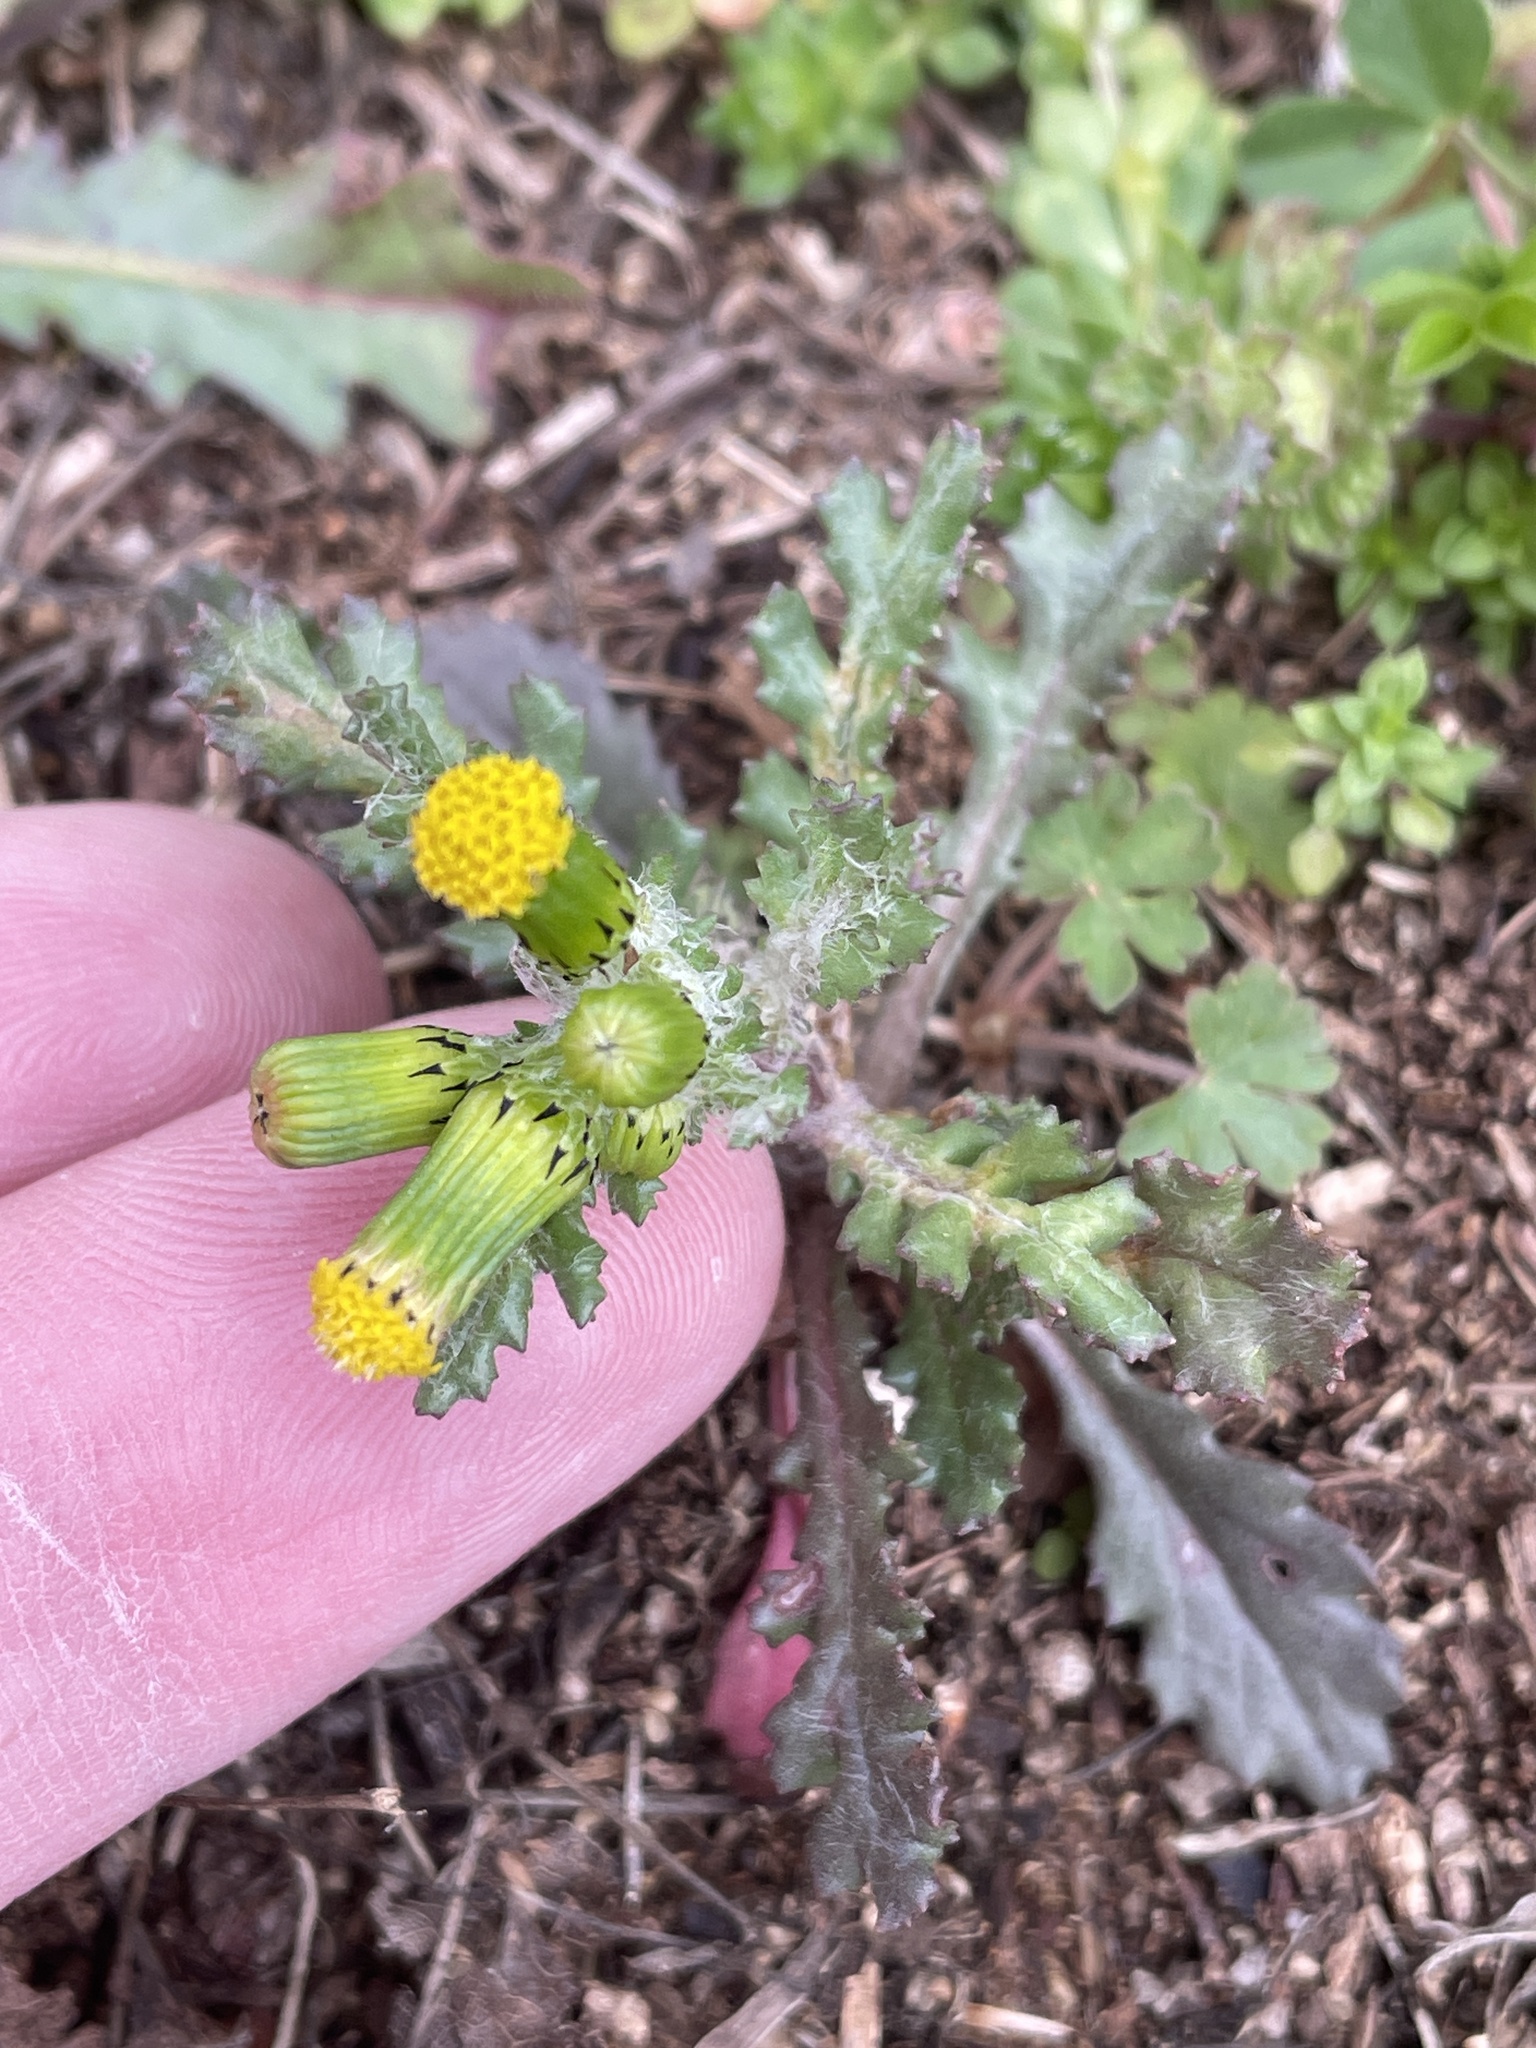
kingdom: Plantae
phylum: Tracheophyta
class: Magnoliopsida
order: Asterales
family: Asteraceae
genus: Senecio
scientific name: Senecio vulgaris
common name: Old-man-in-the-spring
